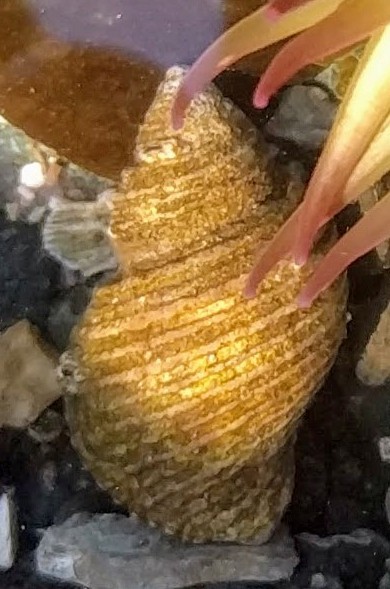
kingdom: Animalia
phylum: Mollusca
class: Gastropoda
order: Neogastropoda
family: Muricidae
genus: Nucella
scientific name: Nucella canaliculata
